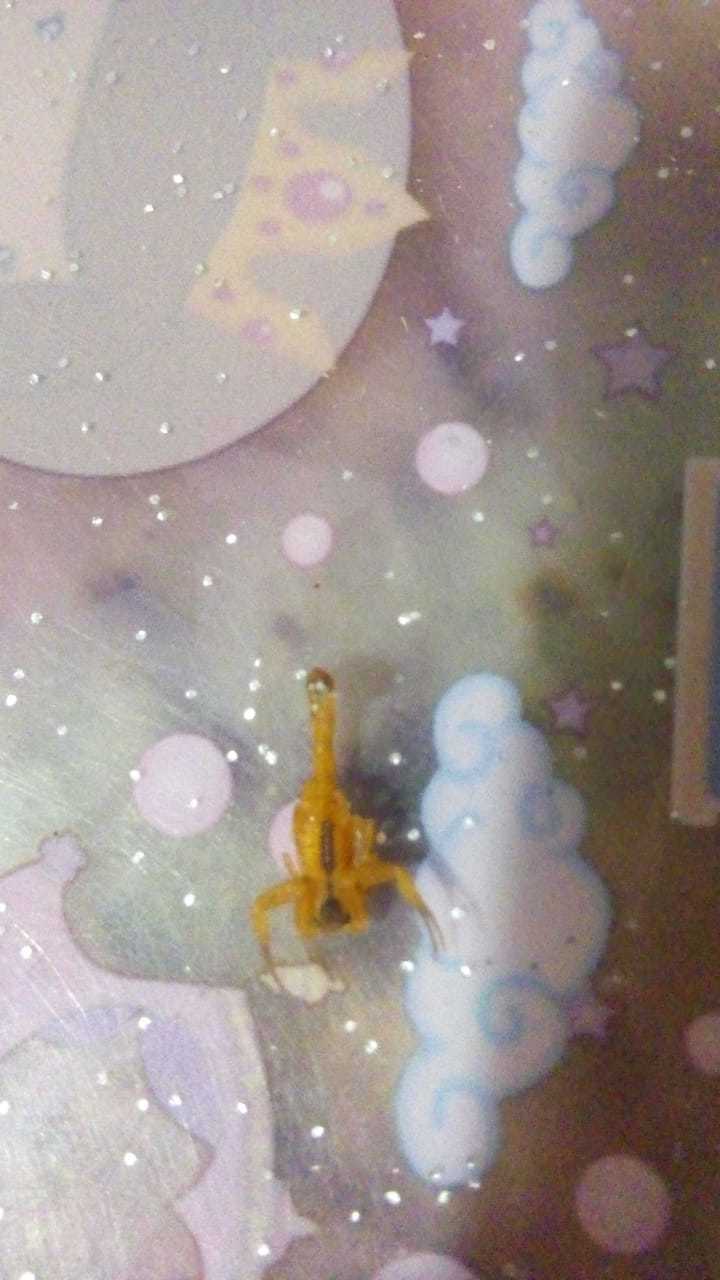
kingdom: Animalia
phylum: Arthropoda
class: Arachnida
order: Scorpiones
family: Buthidae
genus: Tityus
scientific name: Tityus stigmurus
